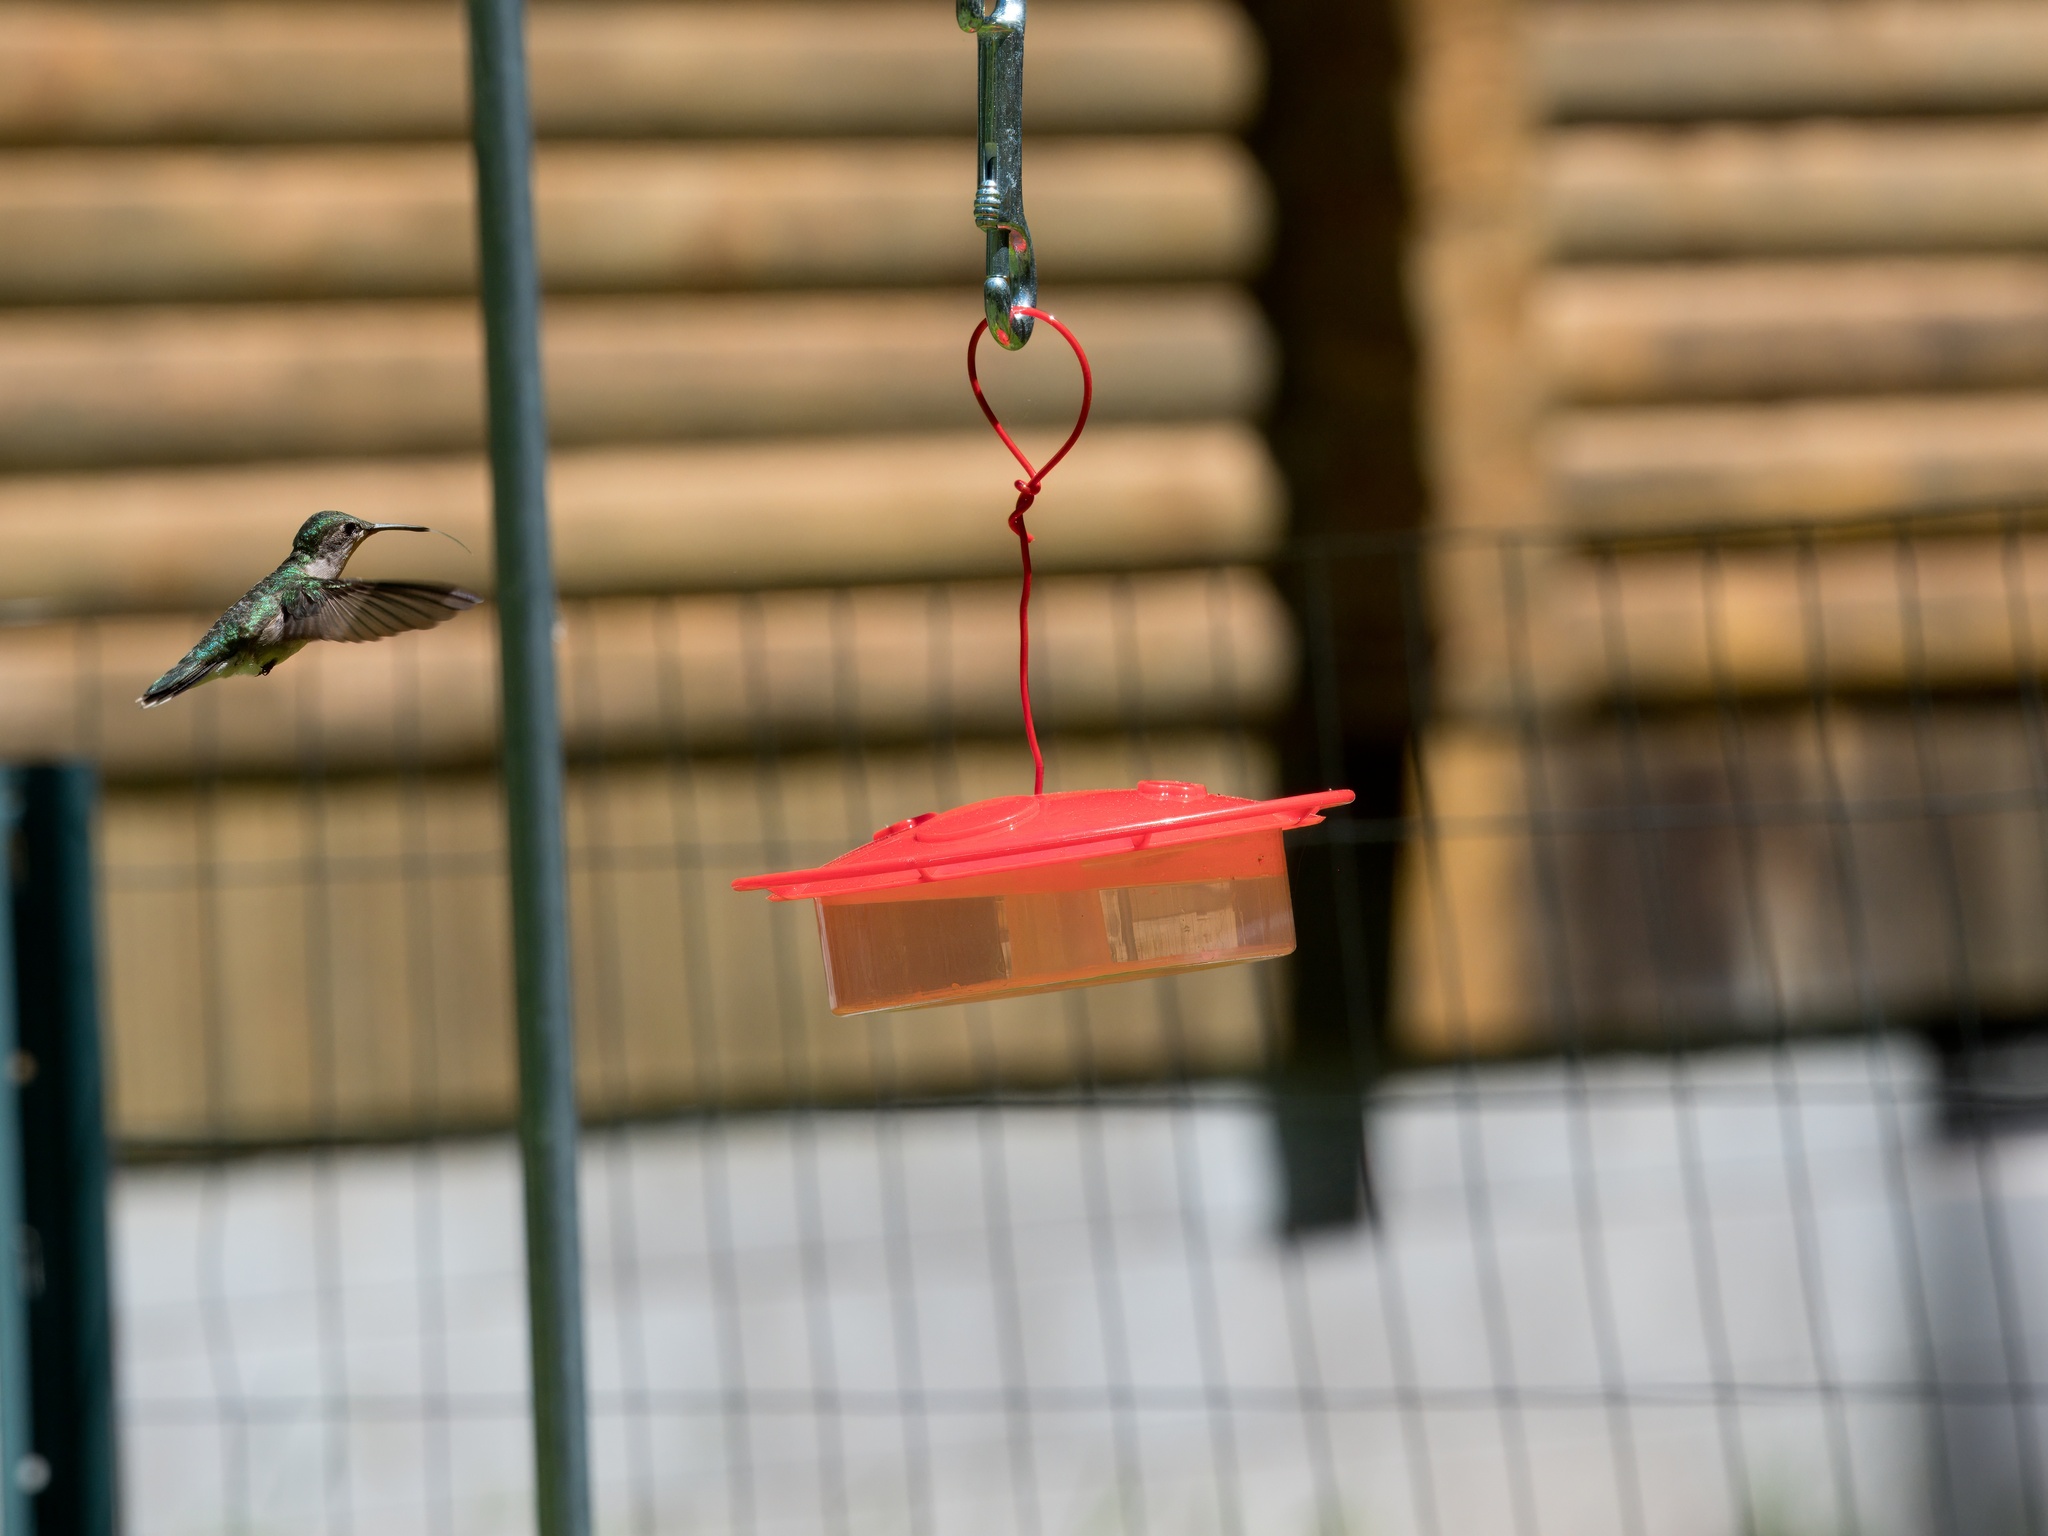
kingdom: Animalia
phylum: Chordata
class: Aves
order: Apodiformes
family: Trochilidae
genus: Archilochus
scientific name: Archilochus colubris
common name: Ruby-throated hummingbird
